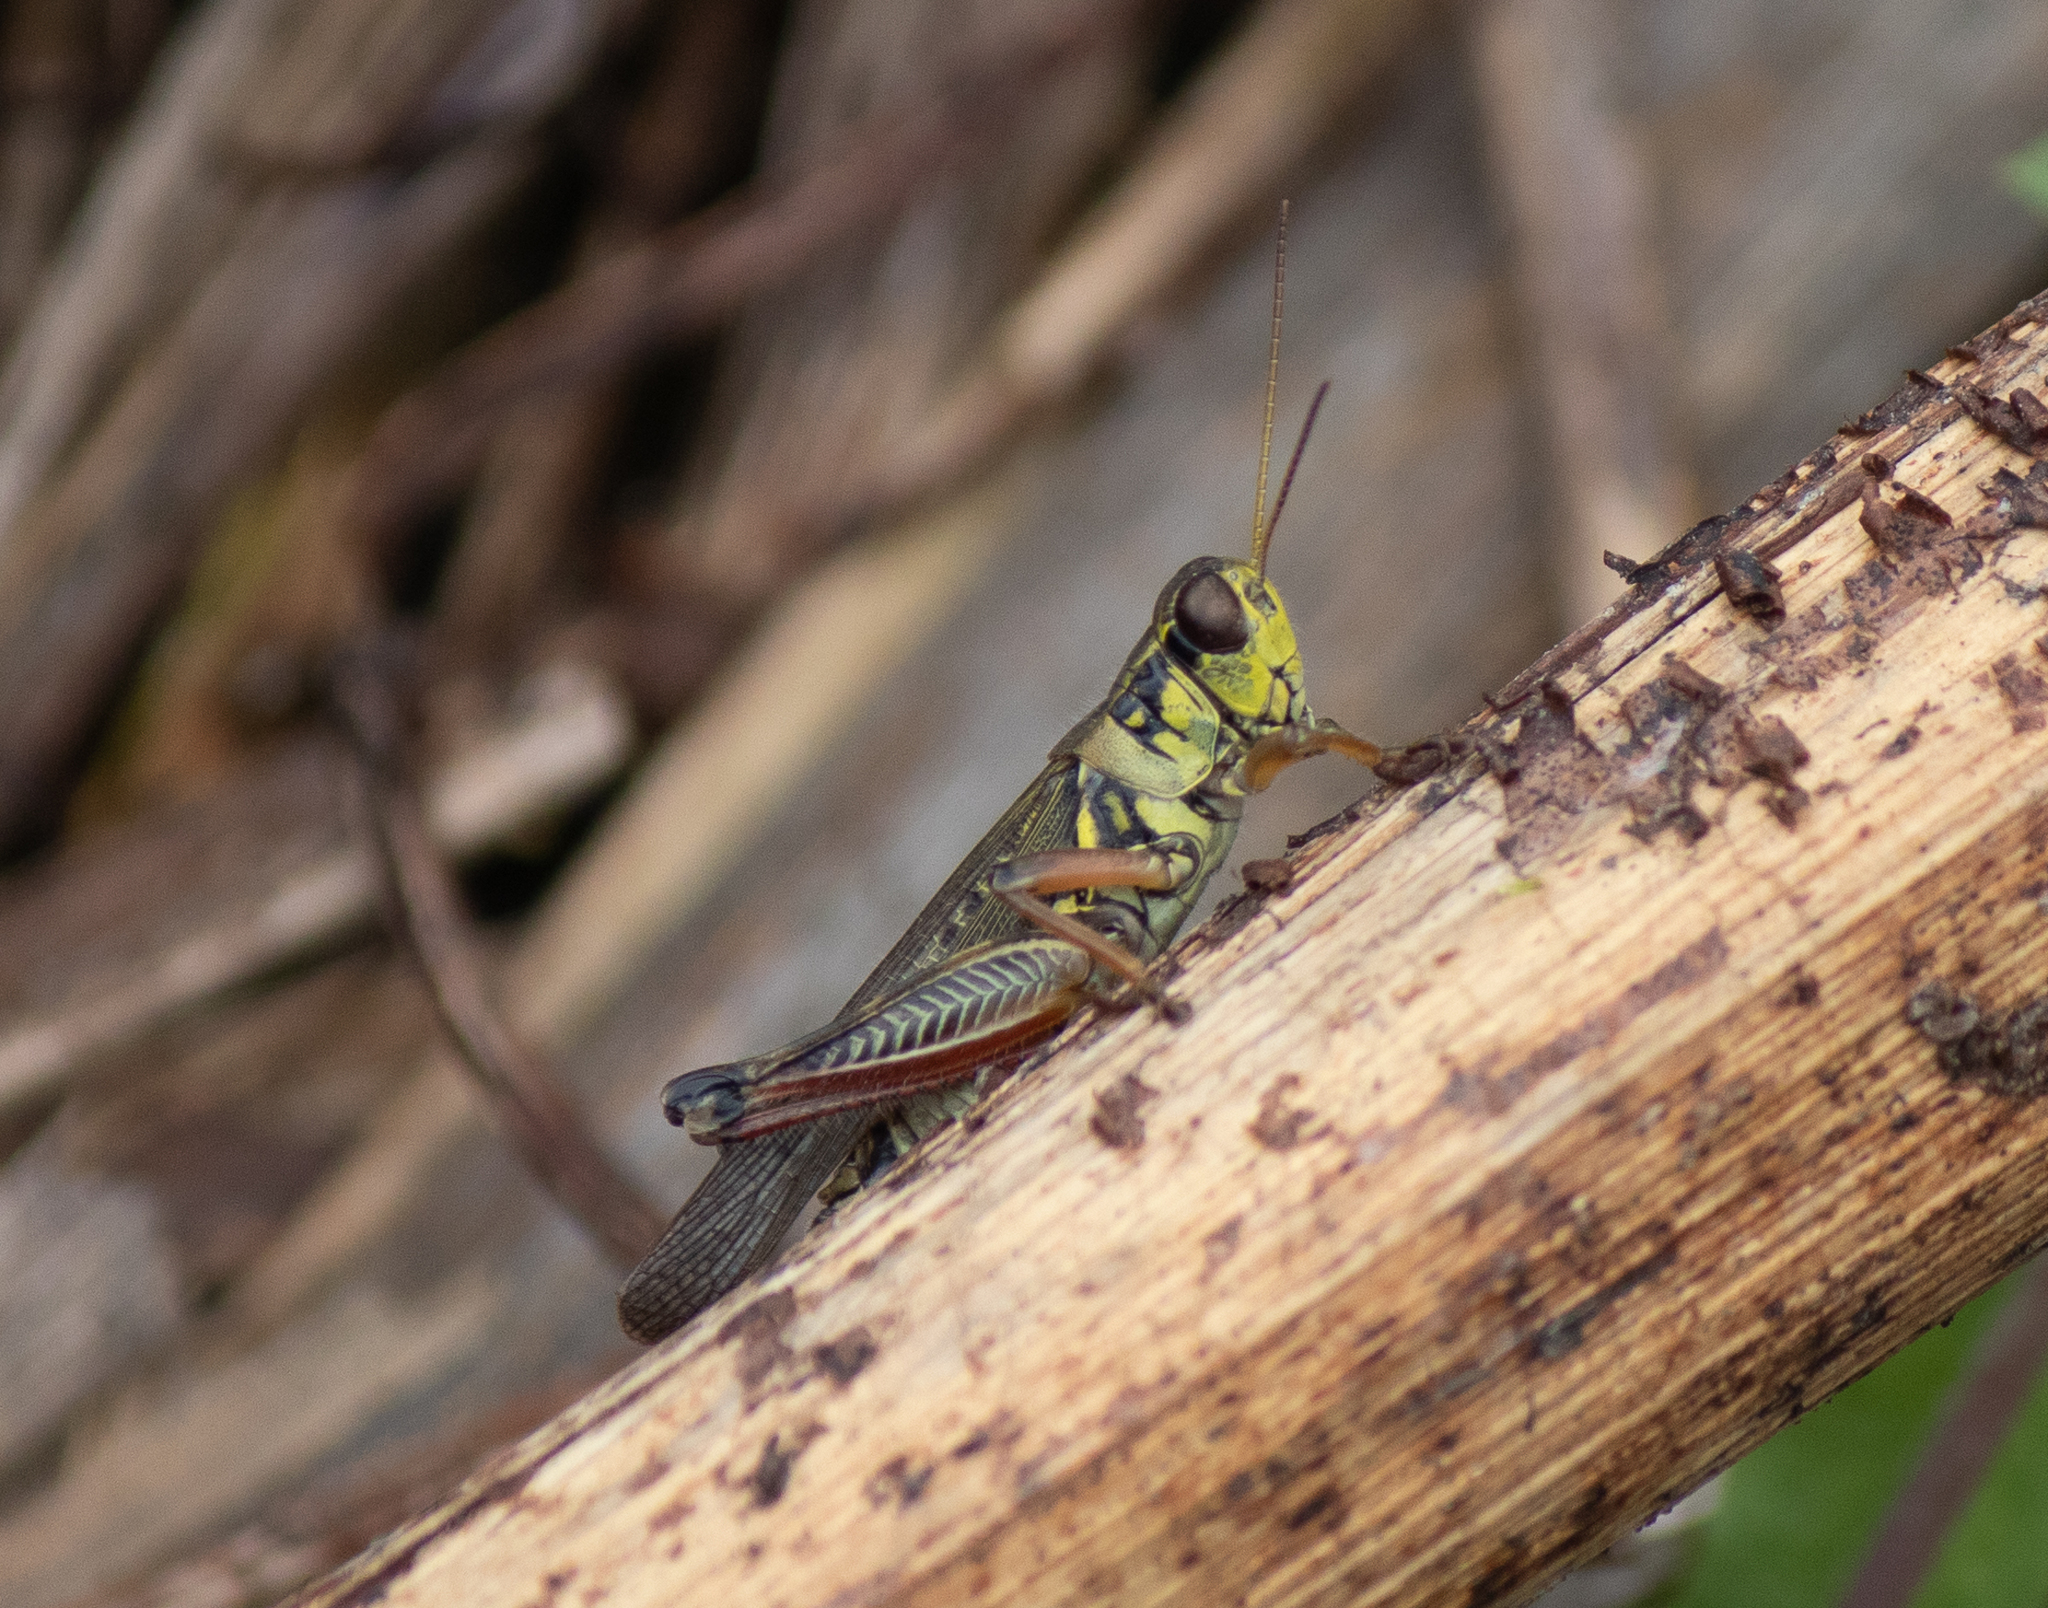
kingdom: Animalia
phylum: Arthropoda
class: Insecta
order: Orthoptera
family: Acrididae
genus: Melanoplus
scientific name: Melanoplus femurrubrum
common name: Red-legged grasshopper
